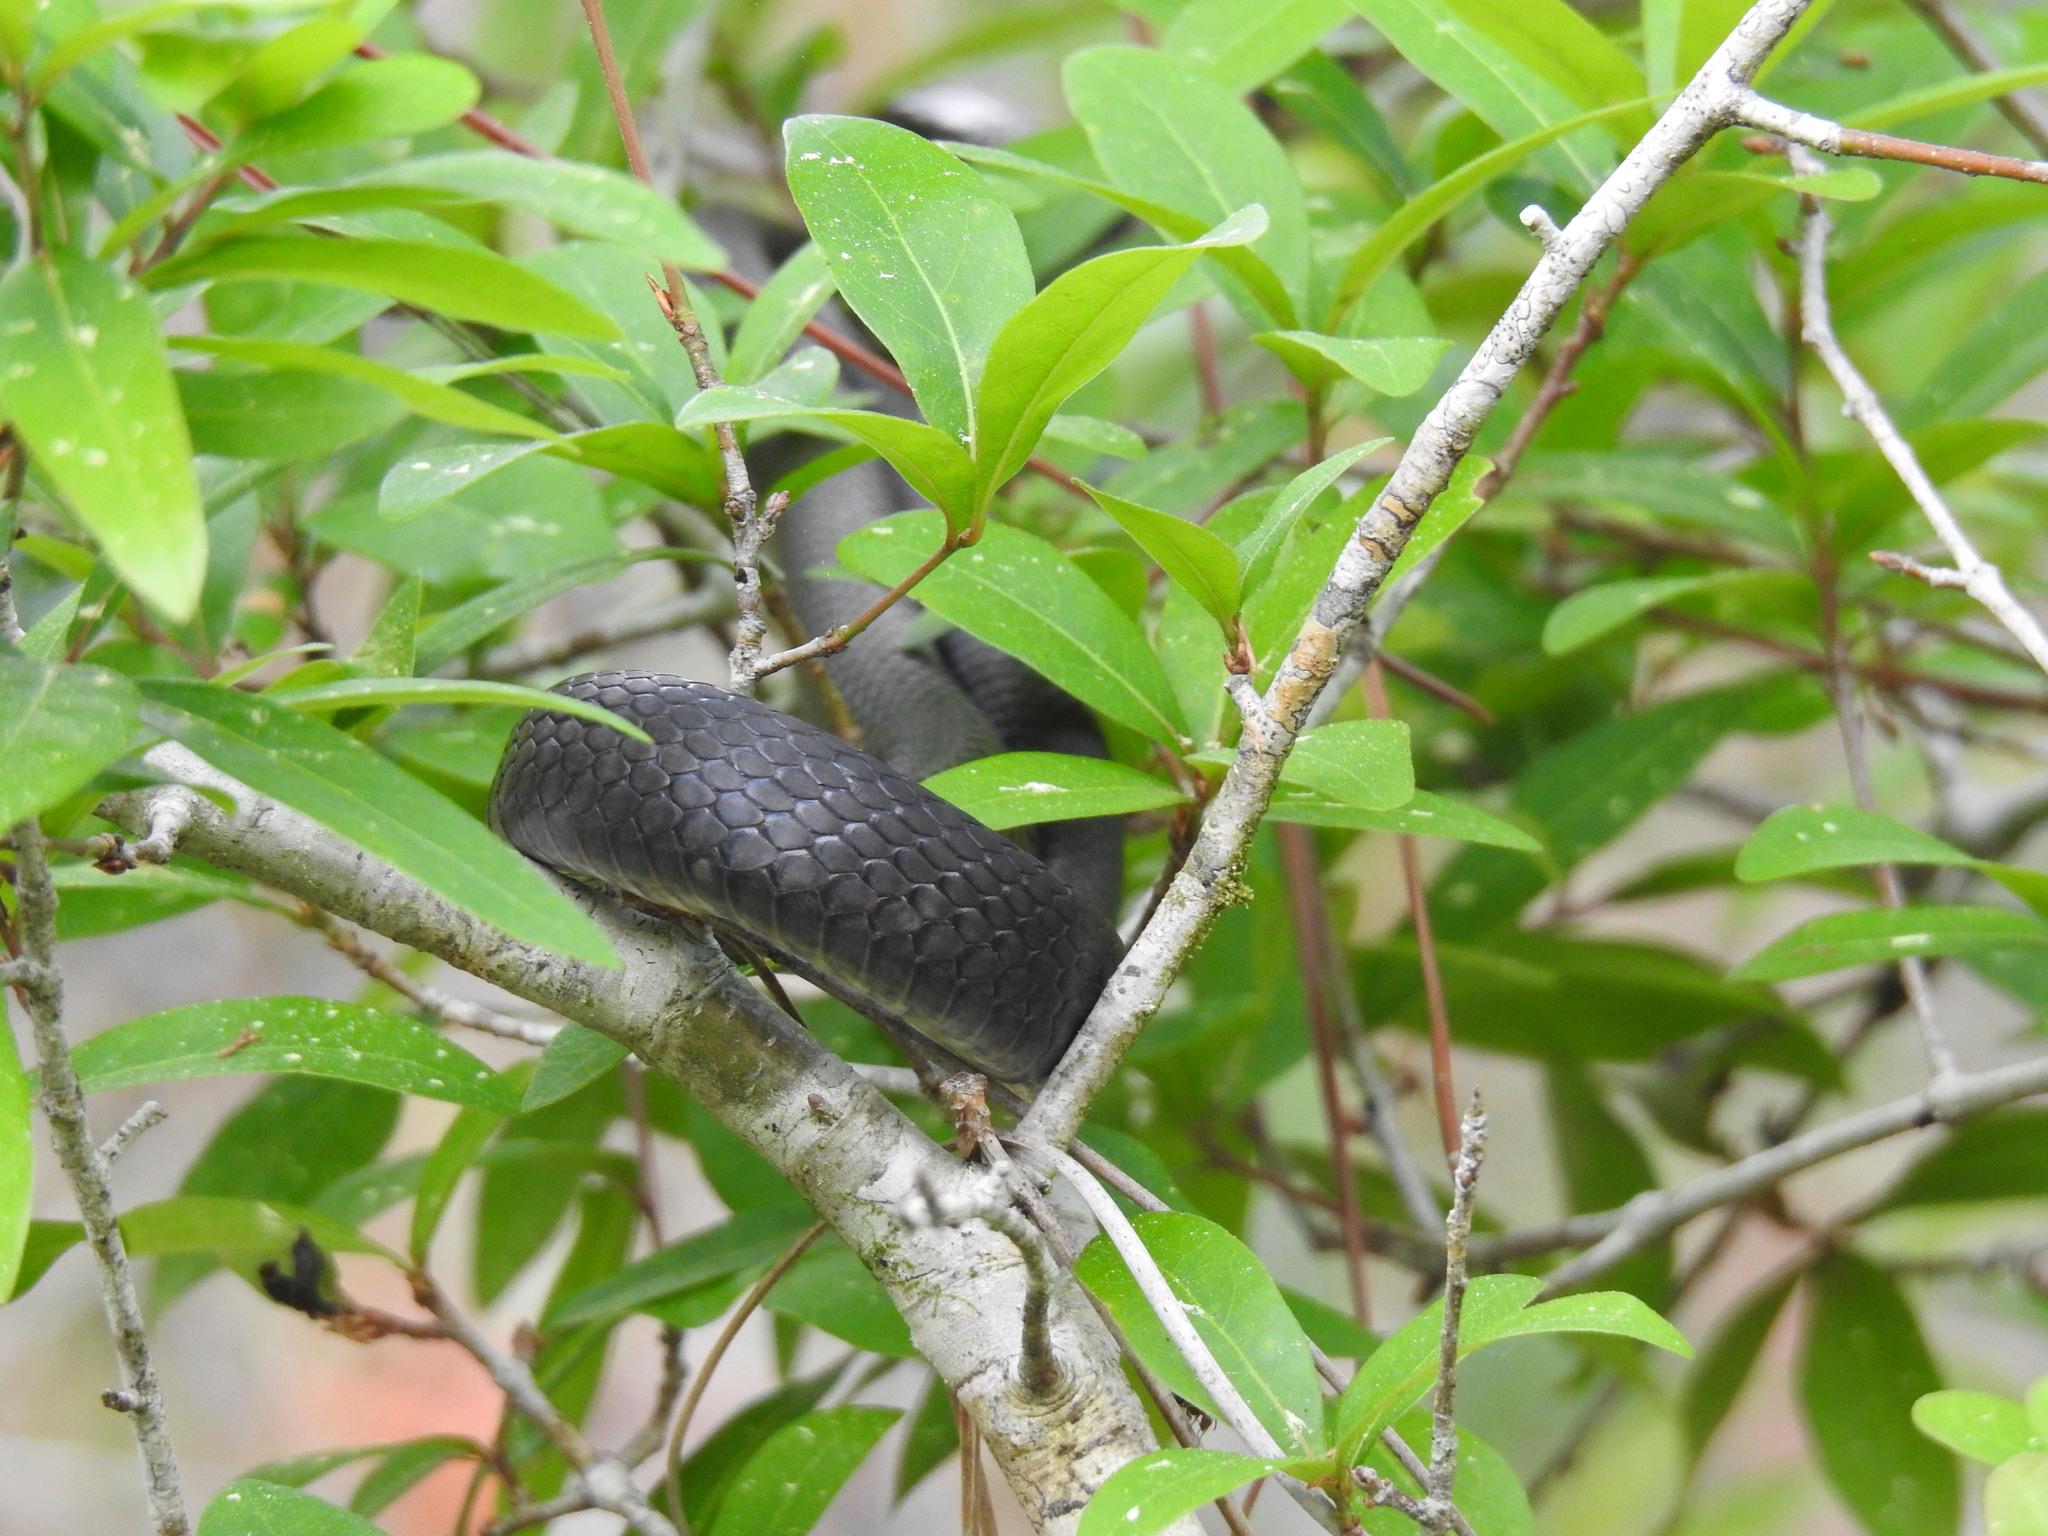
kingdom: Animalia
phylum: Chordata
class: Squamata
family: Colubridae
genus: Coluber
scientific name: Coluber constrictor
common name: Eastern racer
